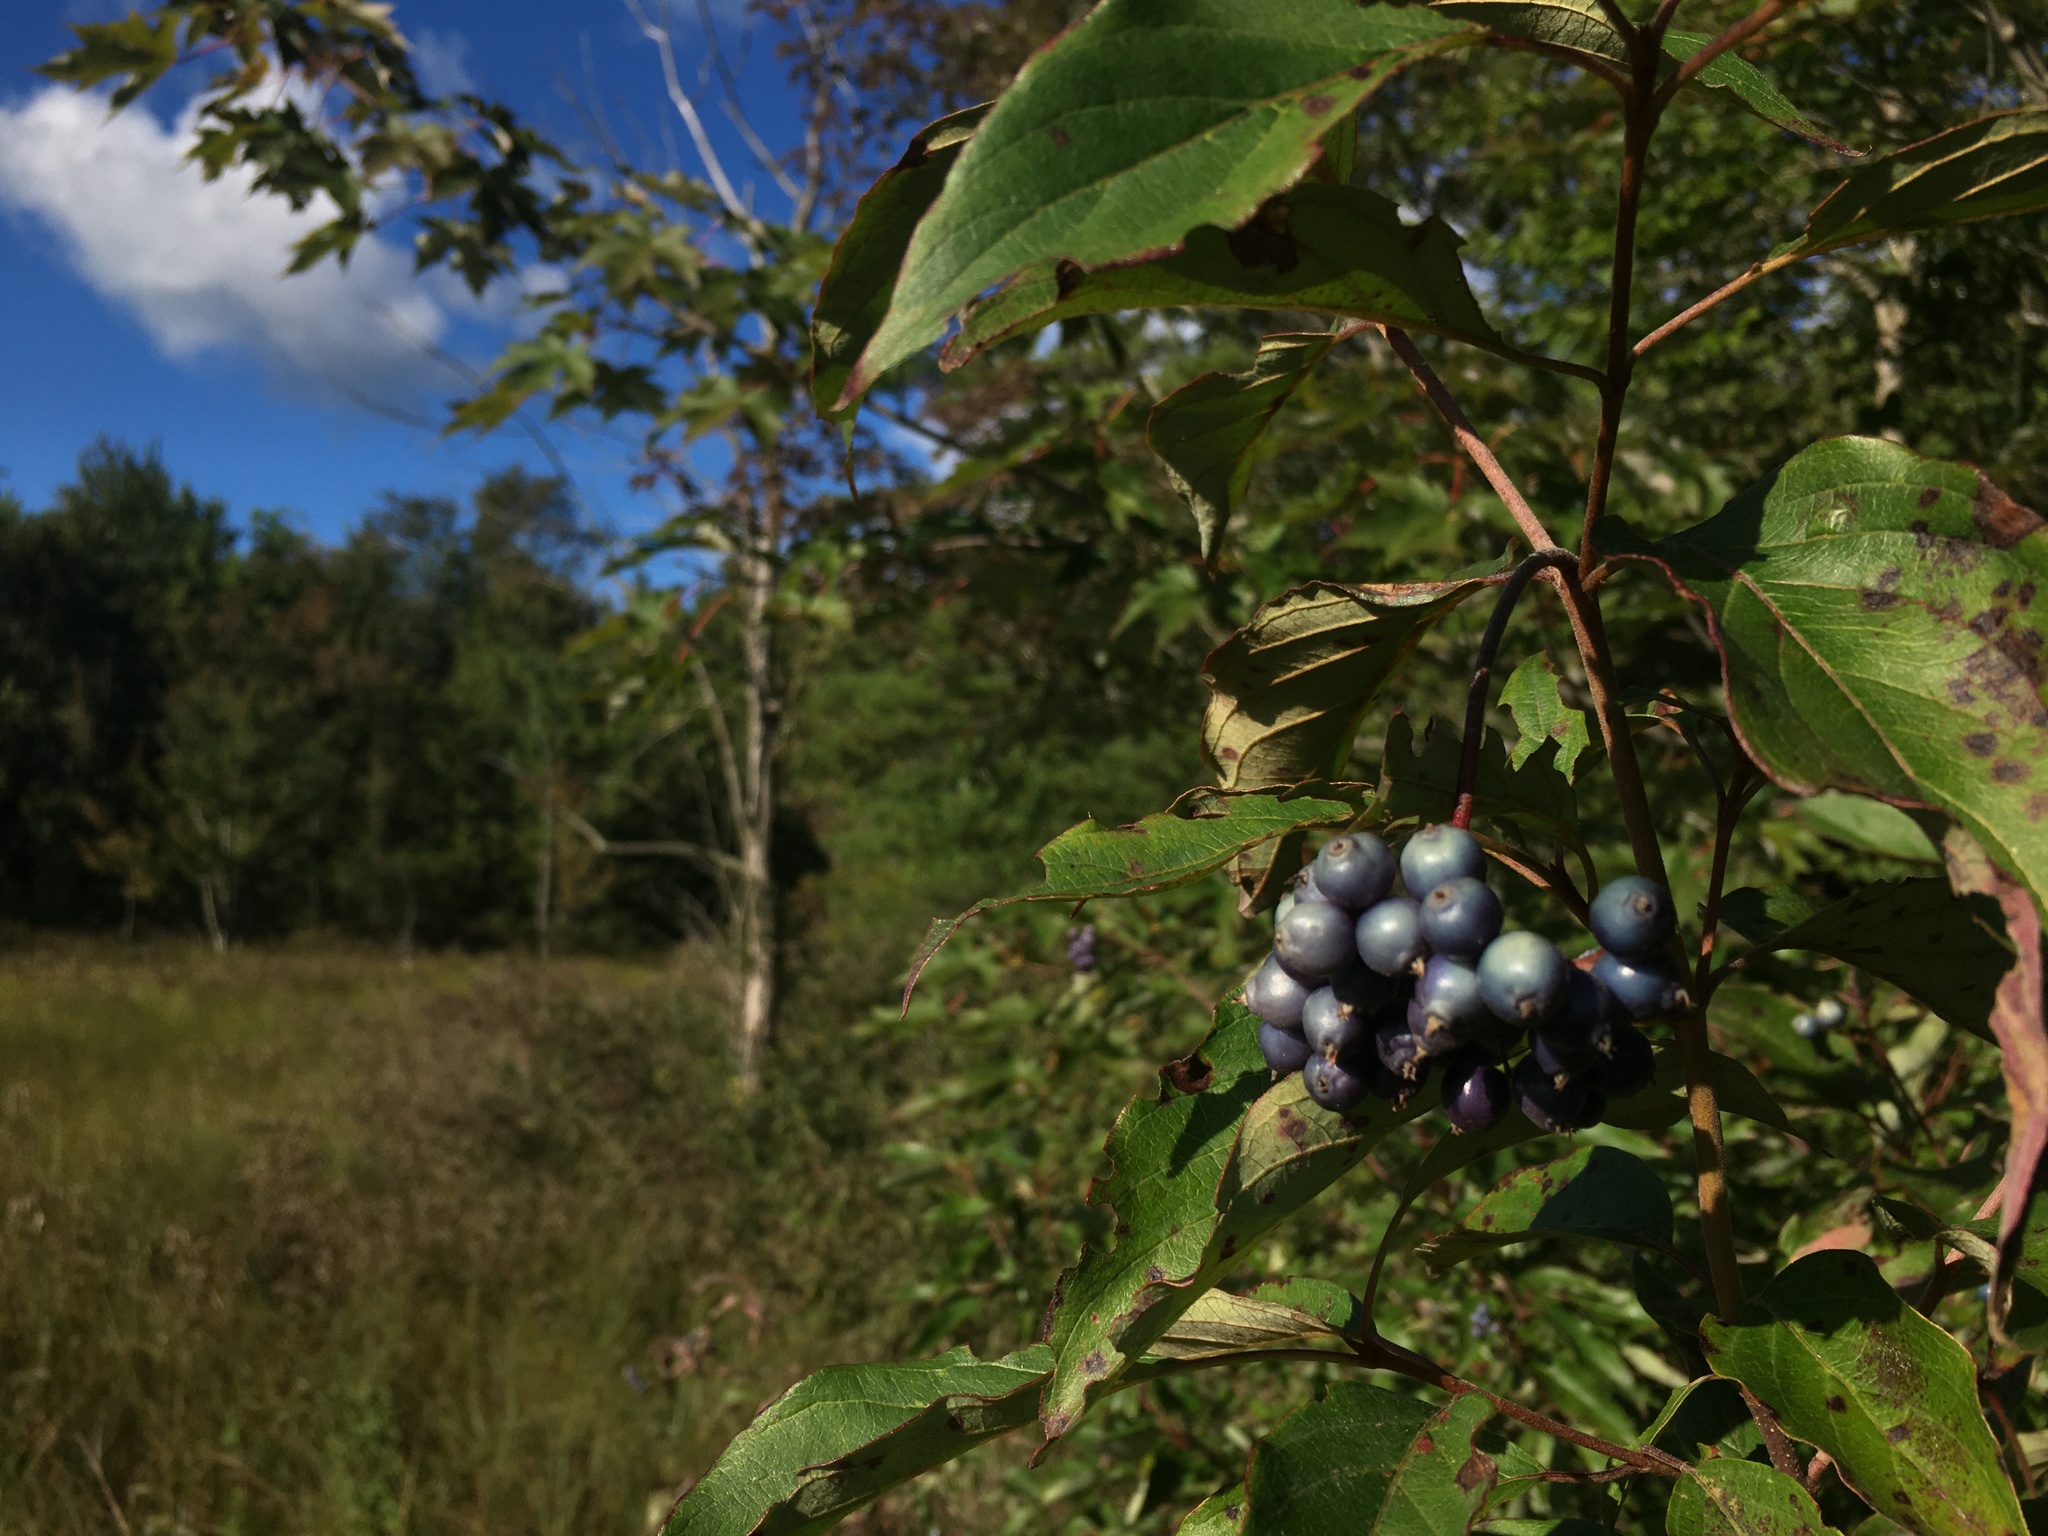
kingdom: Plantae
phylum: Tracheophyta
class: Magnoliopsida
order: Cornales
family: Cornaceae
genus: Cornus
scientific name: Cornus amomum
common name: Silky dogwood
